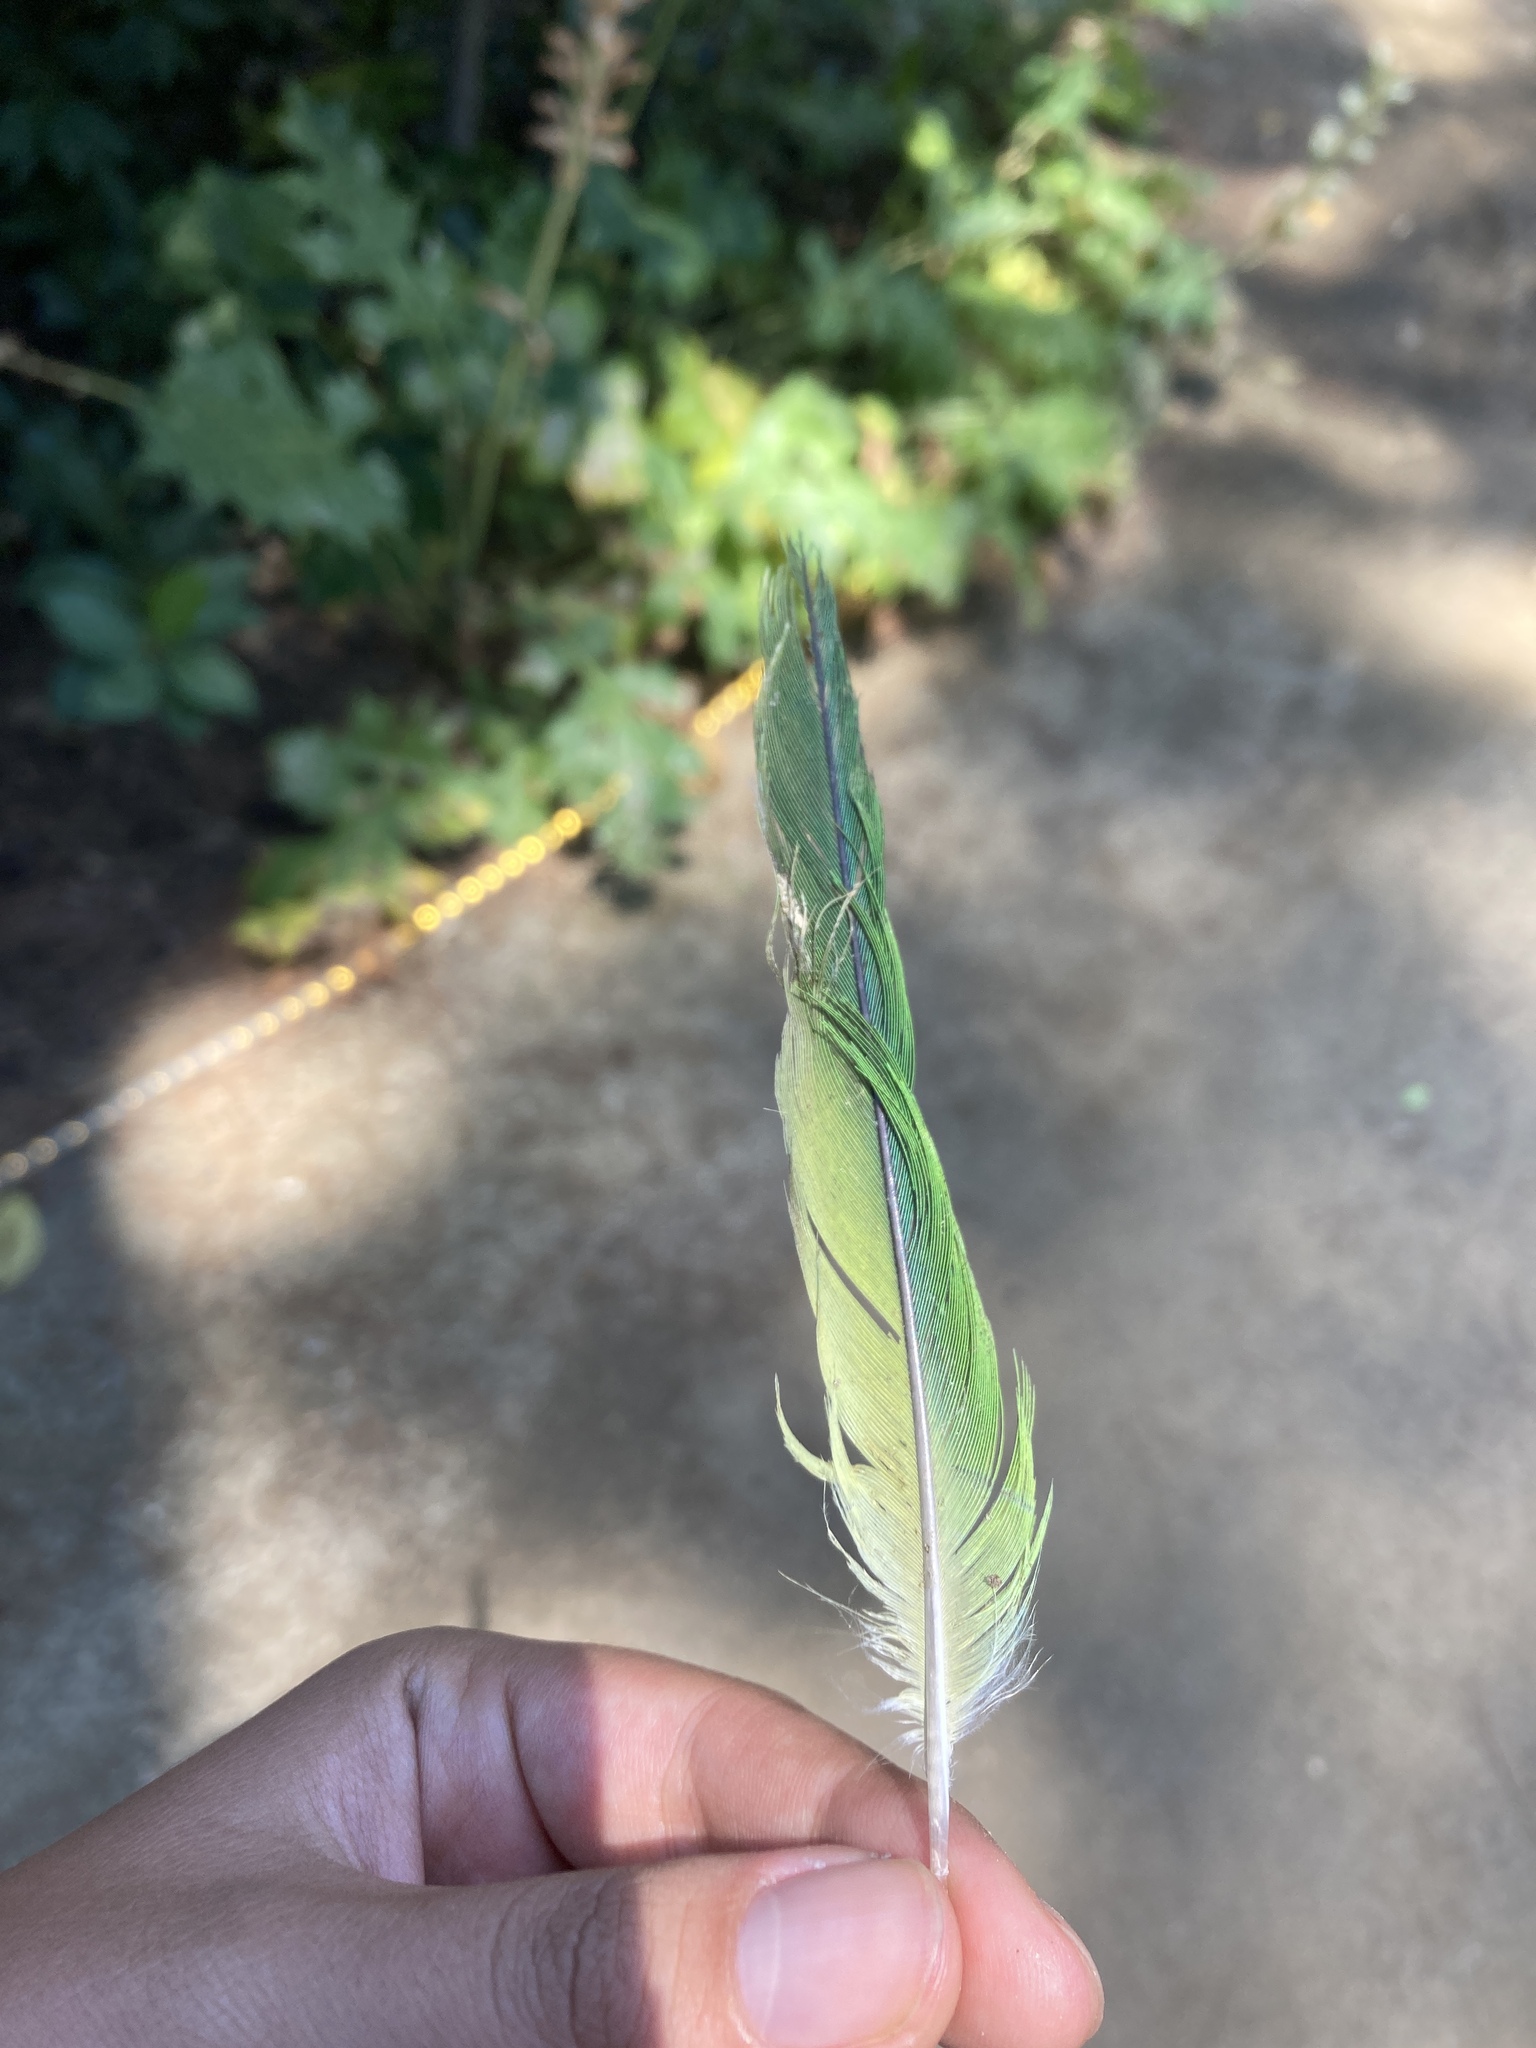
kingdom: Animalia
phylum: Chordata
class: Aves
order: Psittaciformes
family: Psittacidae
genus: Myiopsitta
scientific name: Myiopsitta monachus
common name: Monk parakeet
